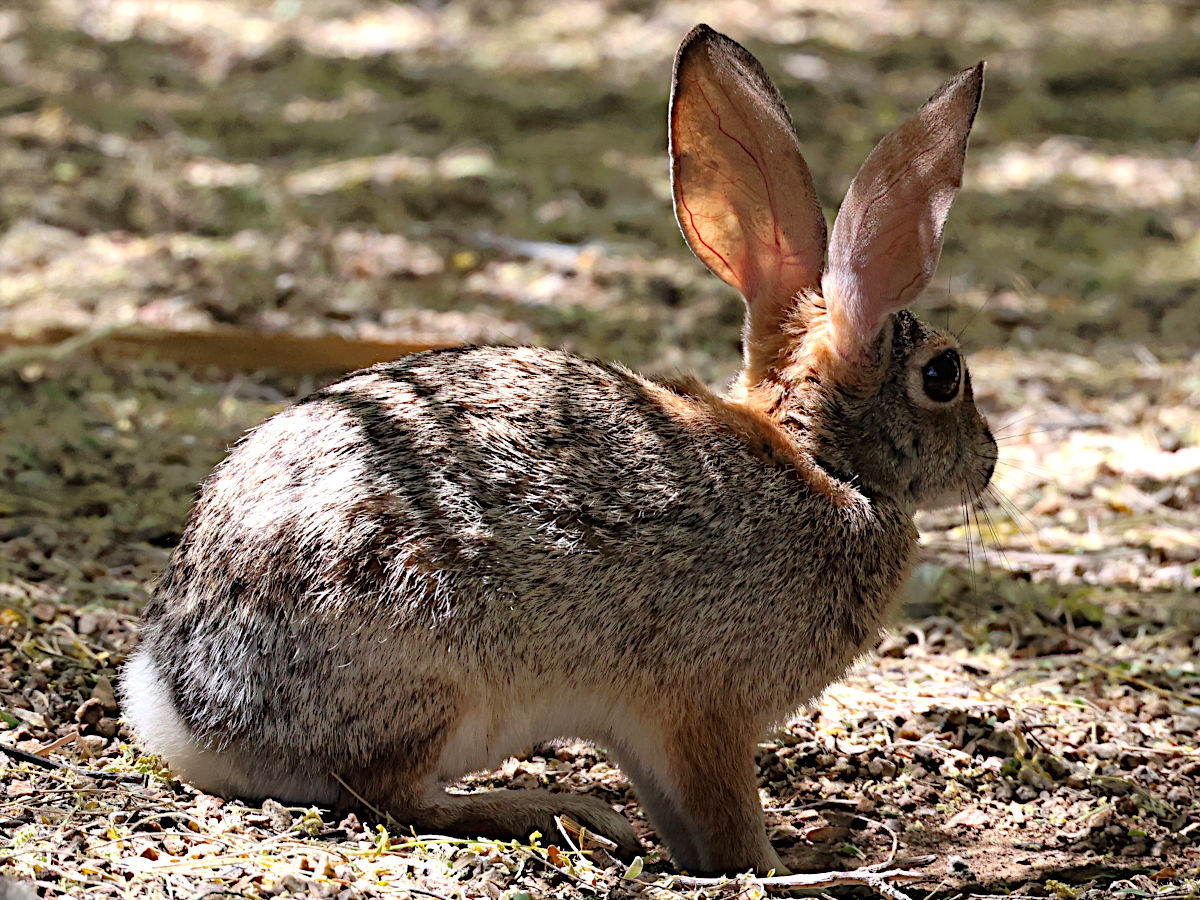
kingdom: Animalia
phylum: Chordata
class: Mammalia
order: Lagomorpha
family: Leporidae
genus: Sylvilagus
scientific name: Sylvilagus audubonii
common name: Desert cottontail
